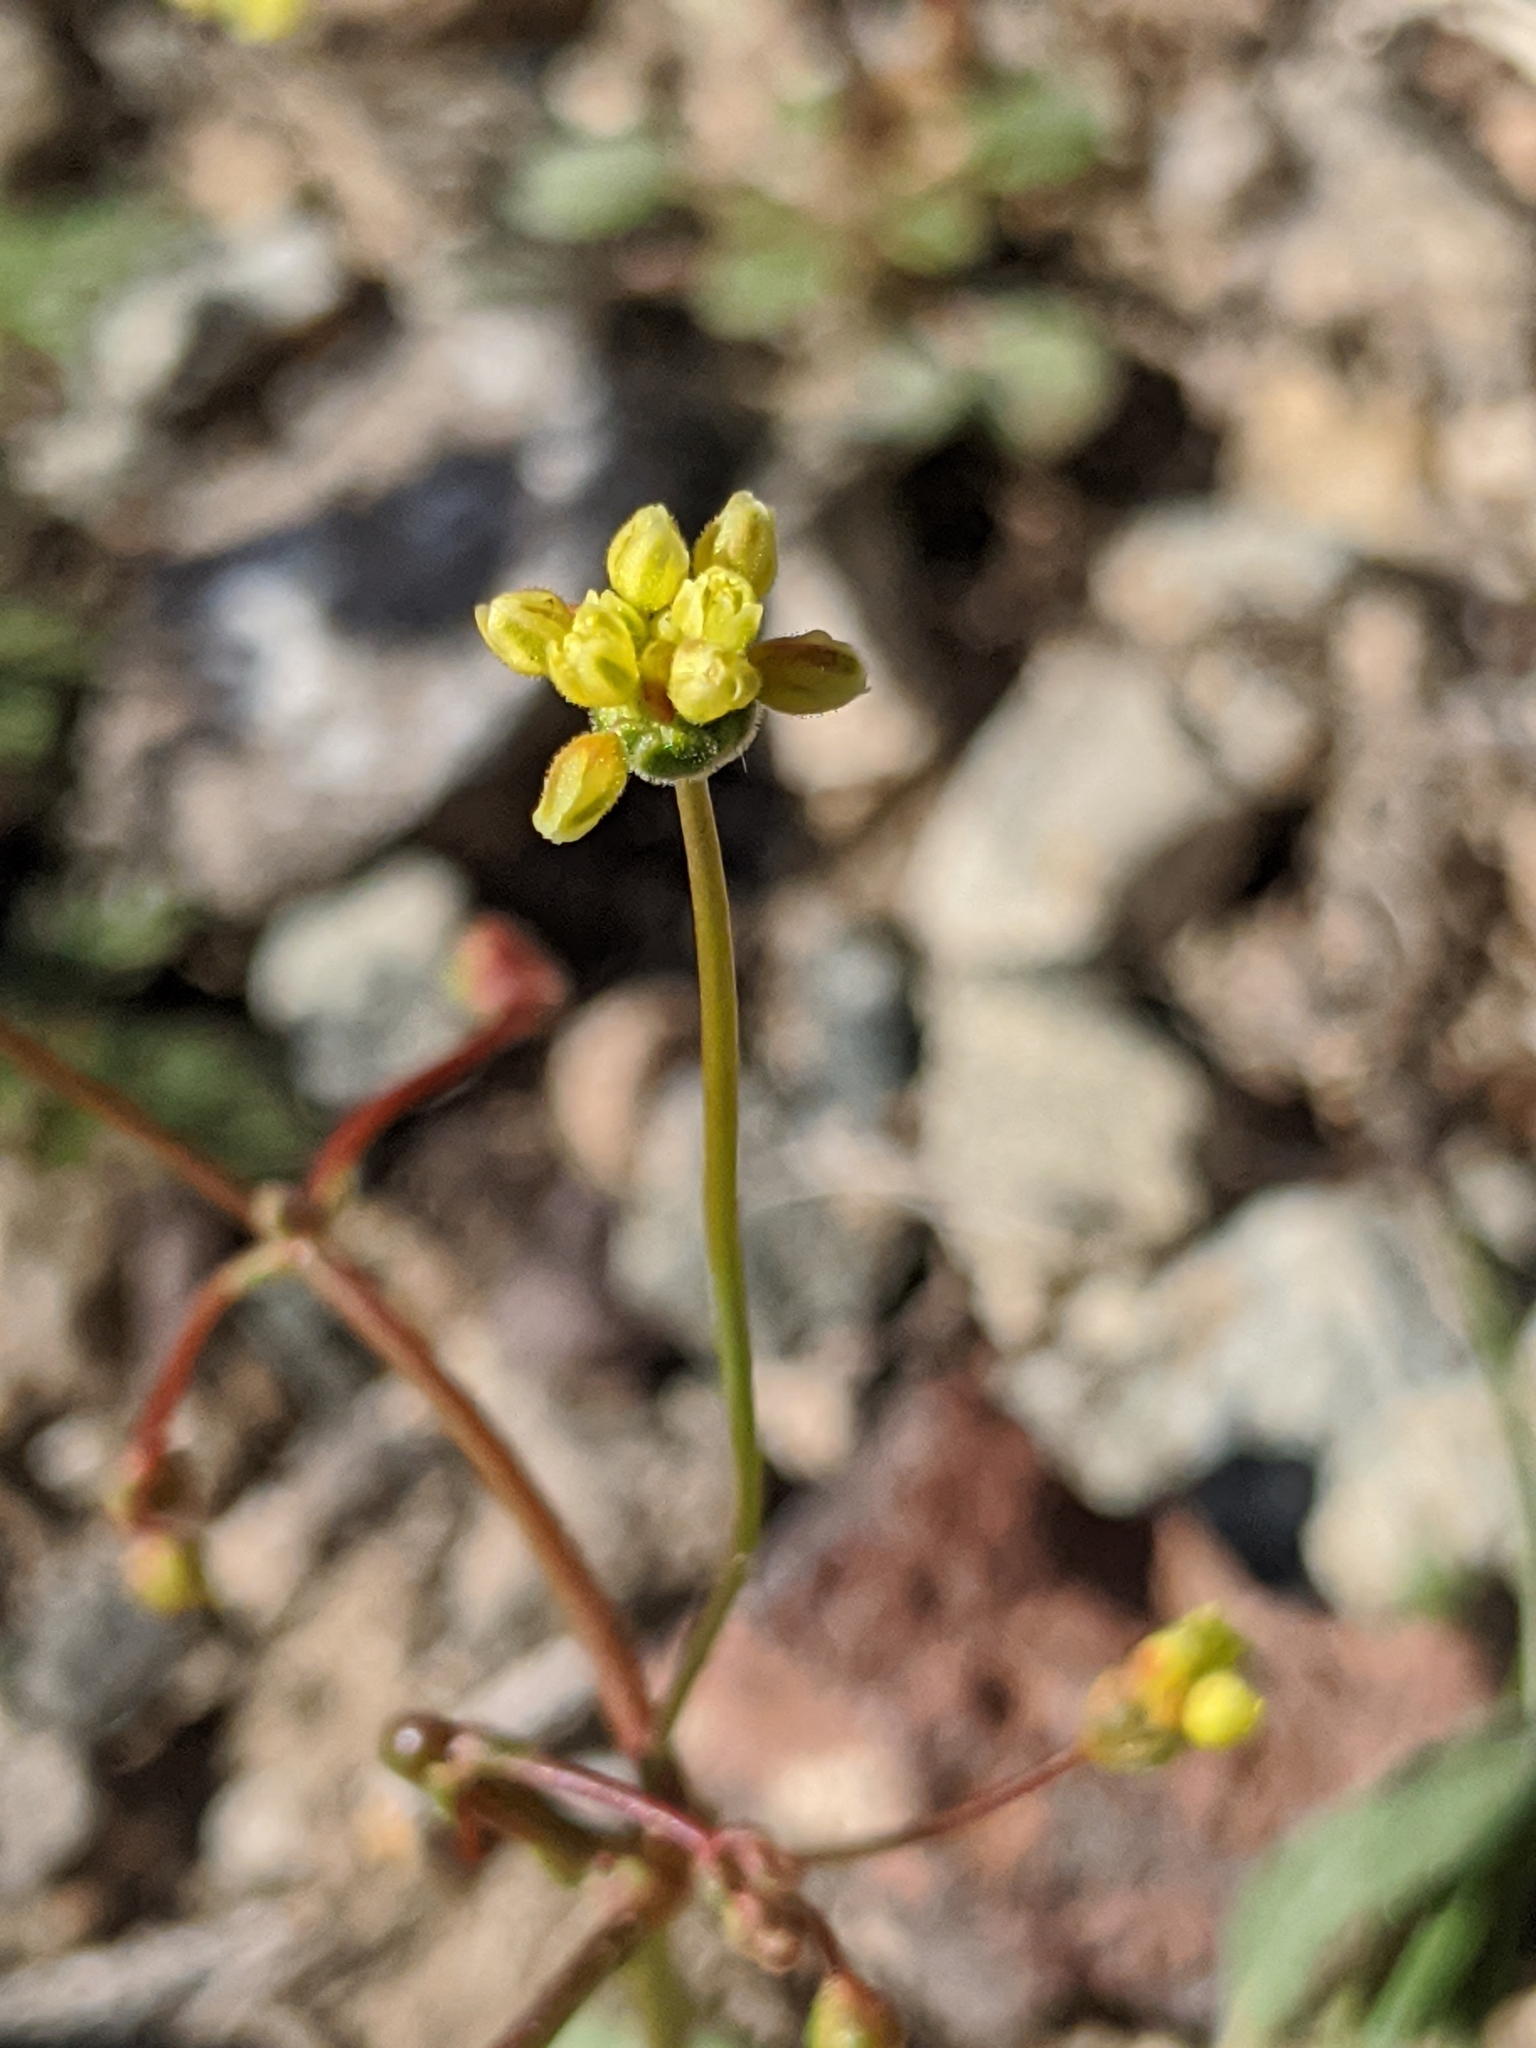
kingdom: Plantae
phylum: Tracheophyta
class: Magnoliopsida
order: Caryophyllales
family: Polygonaceae
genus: Eriogonum
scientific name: Eriogonum pusillum
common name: Yellow turbans
